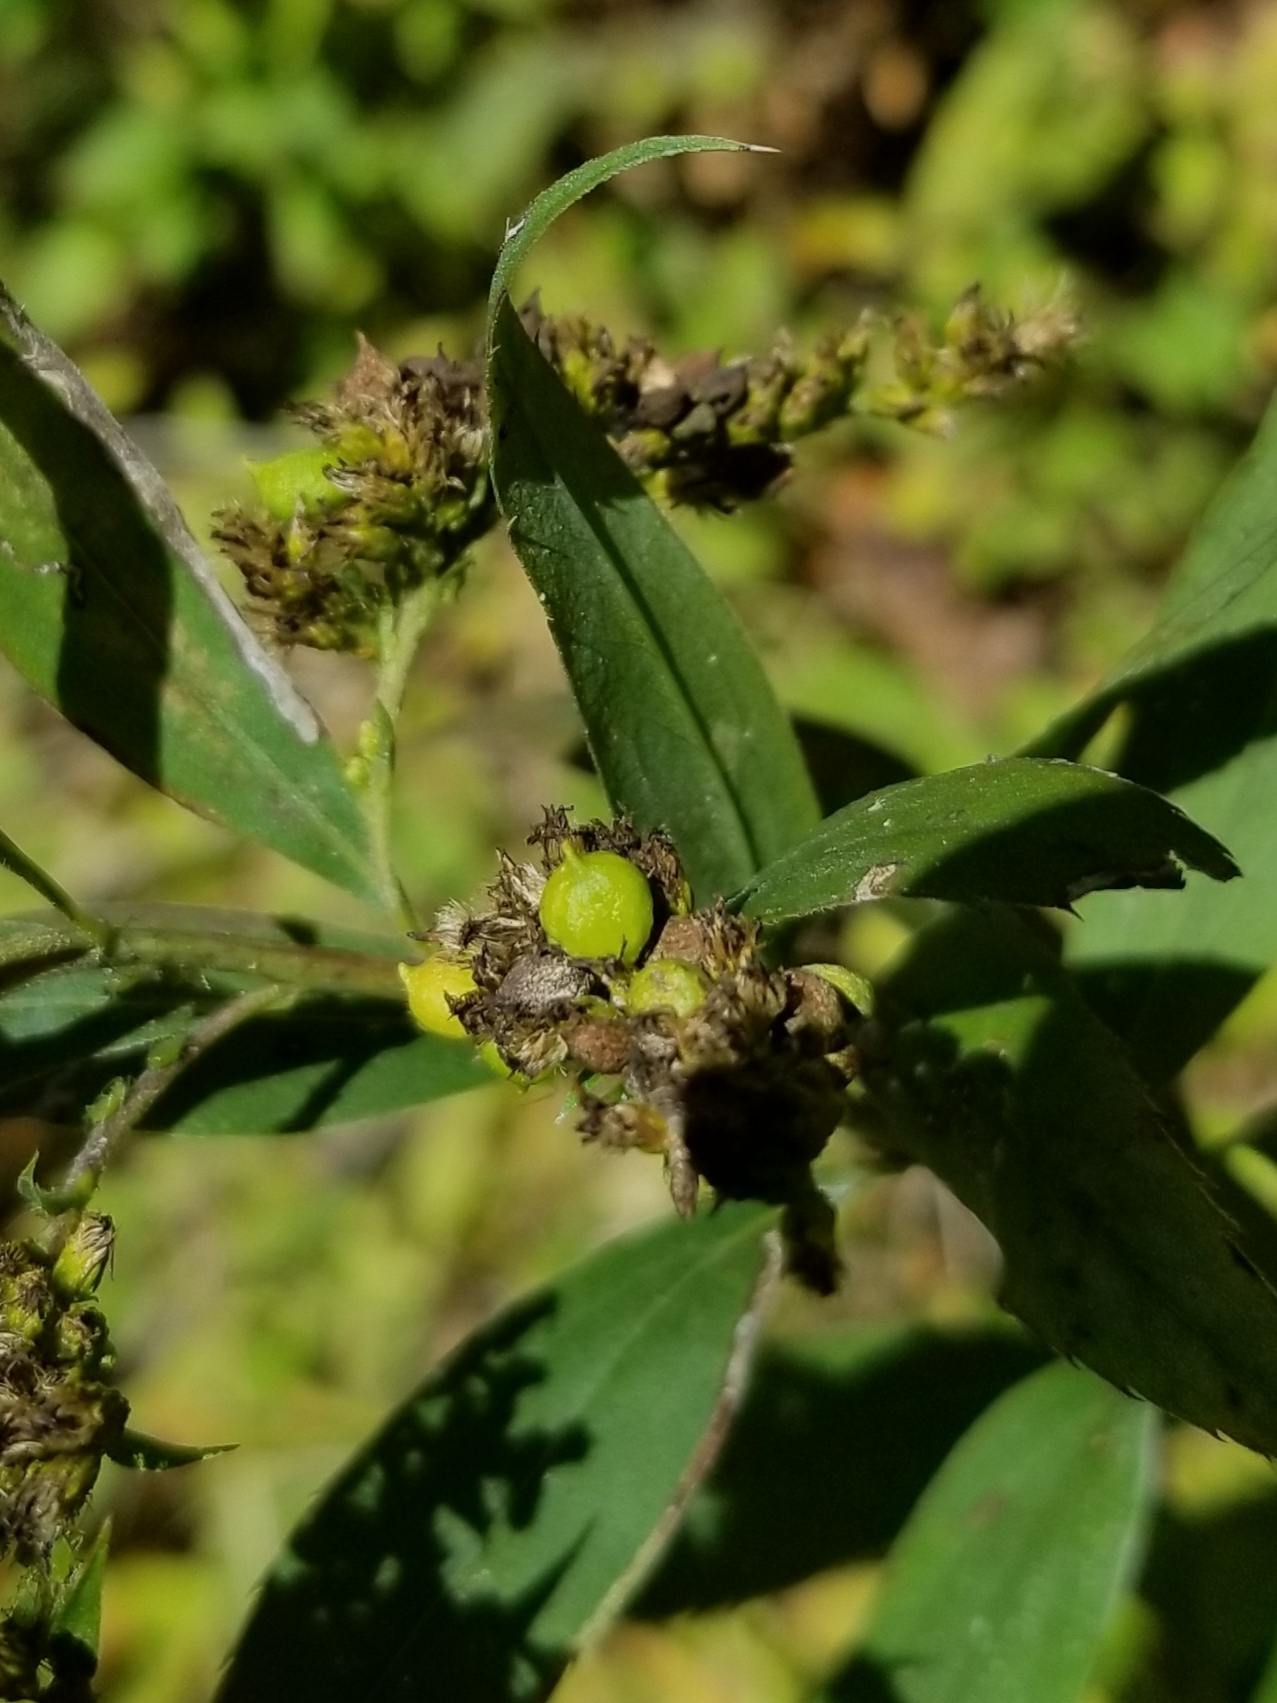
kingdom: Animalia
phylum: Arthropoda
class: Insecta
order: Diptera
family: Cecidomyiidae
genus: Schizomyia
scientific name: Schizomyia racemicola
